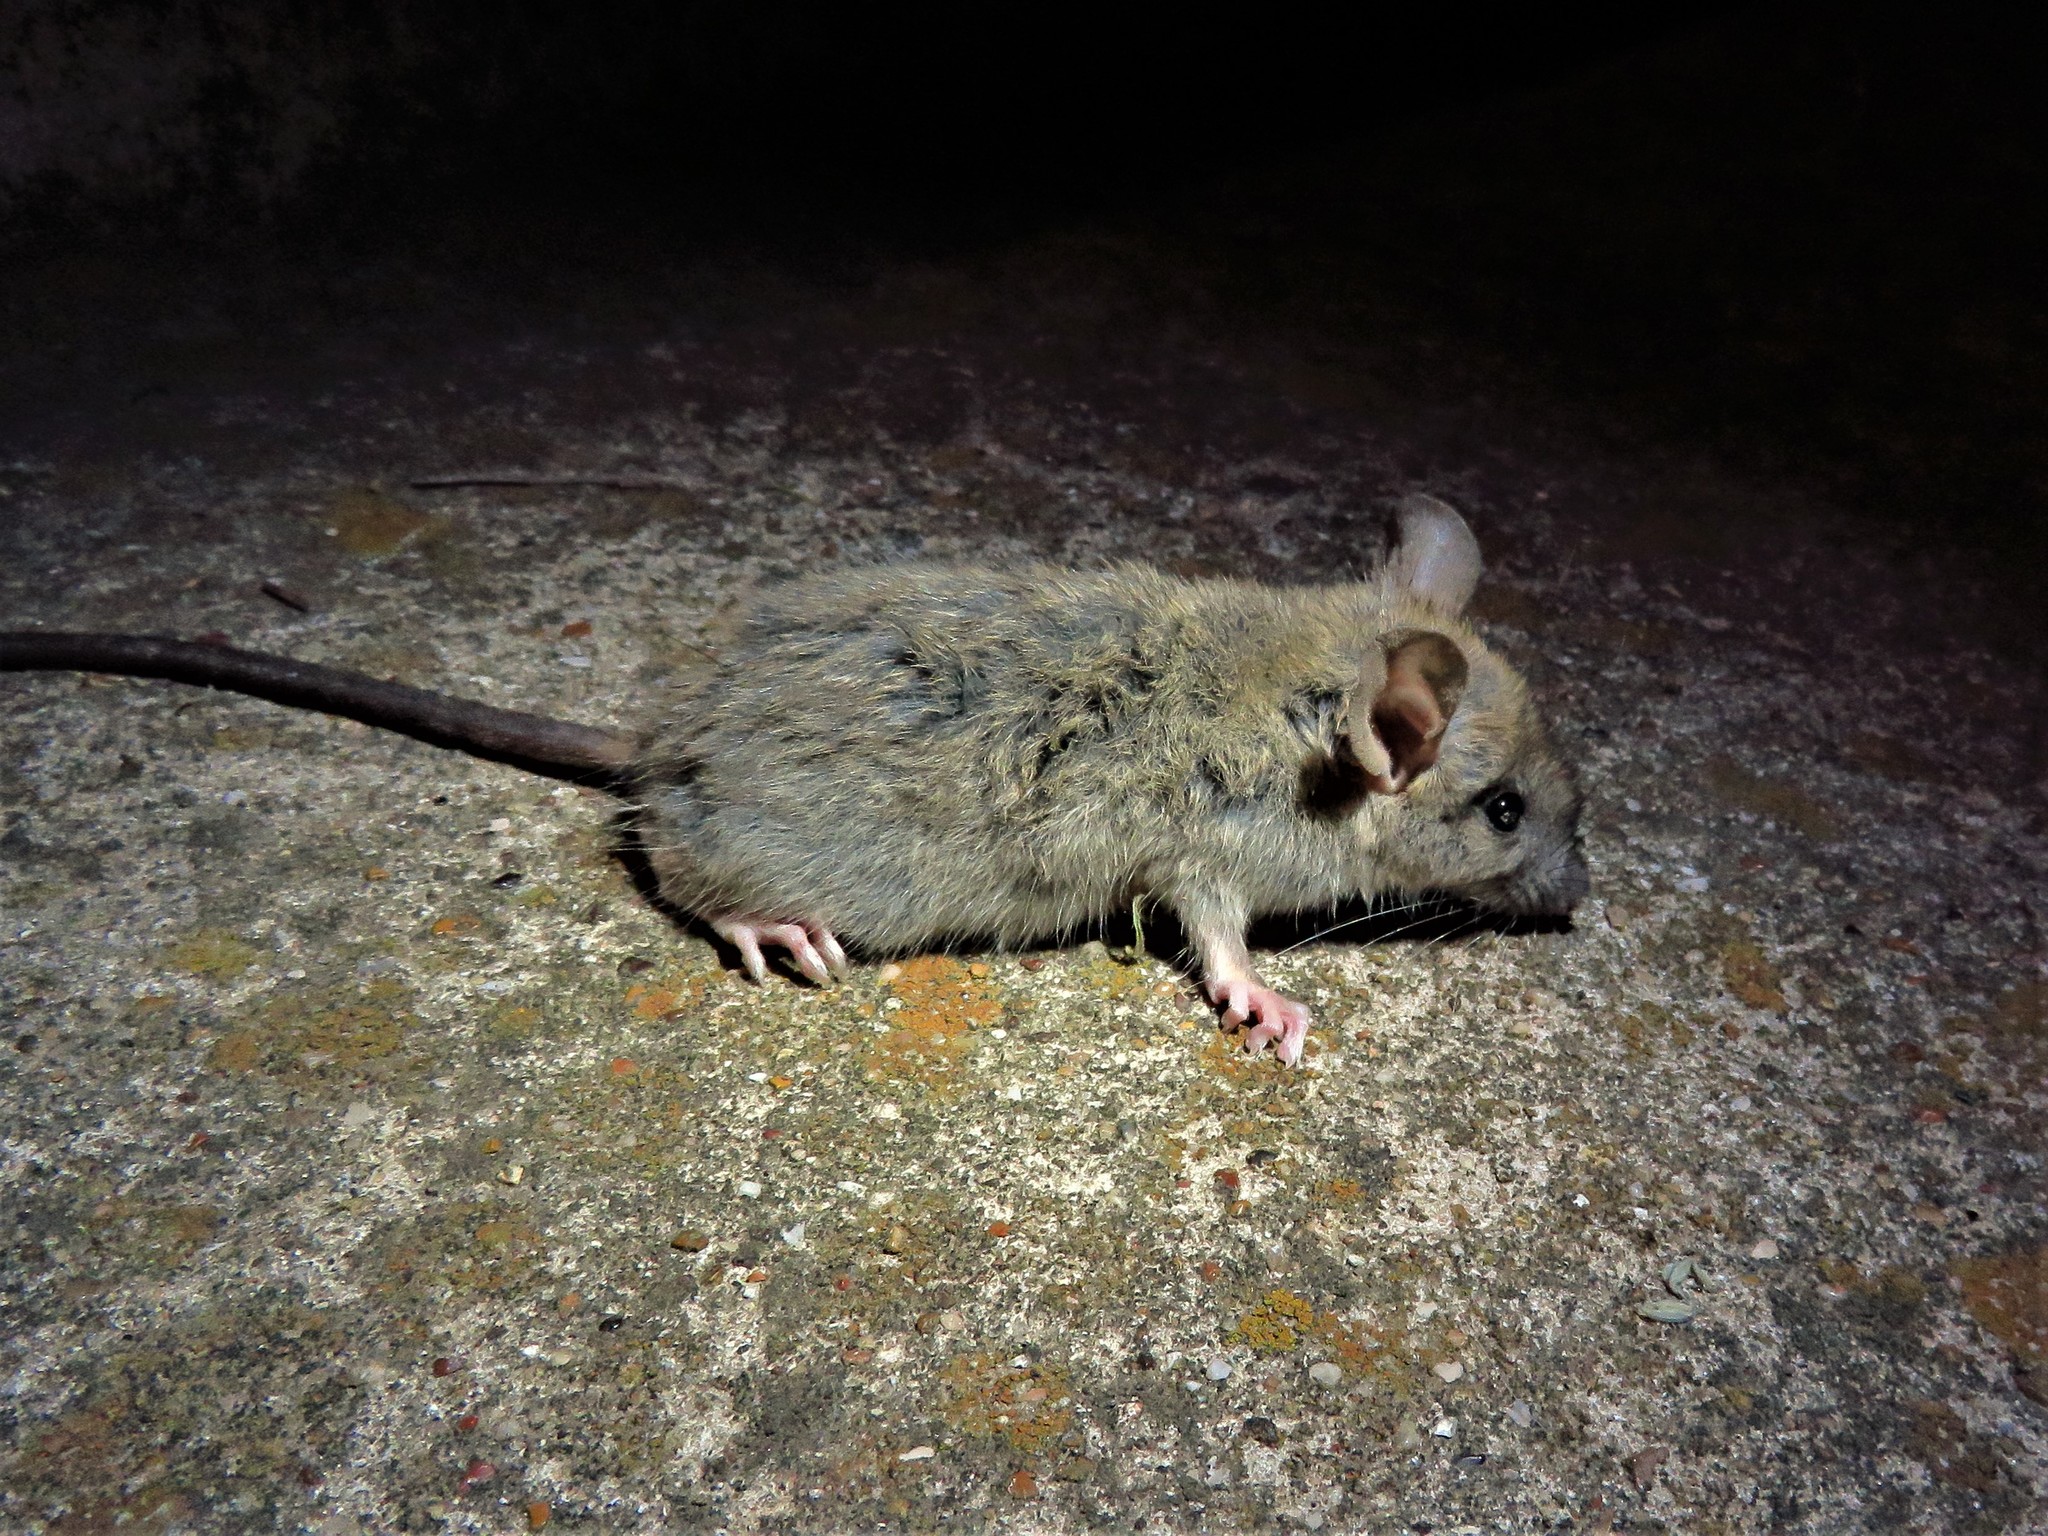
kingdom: Animalia
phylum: Chordata
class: Mammalia
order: Rodentia
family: Muridae
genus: Rattus
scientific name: Rattus rattus
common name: Black rat
